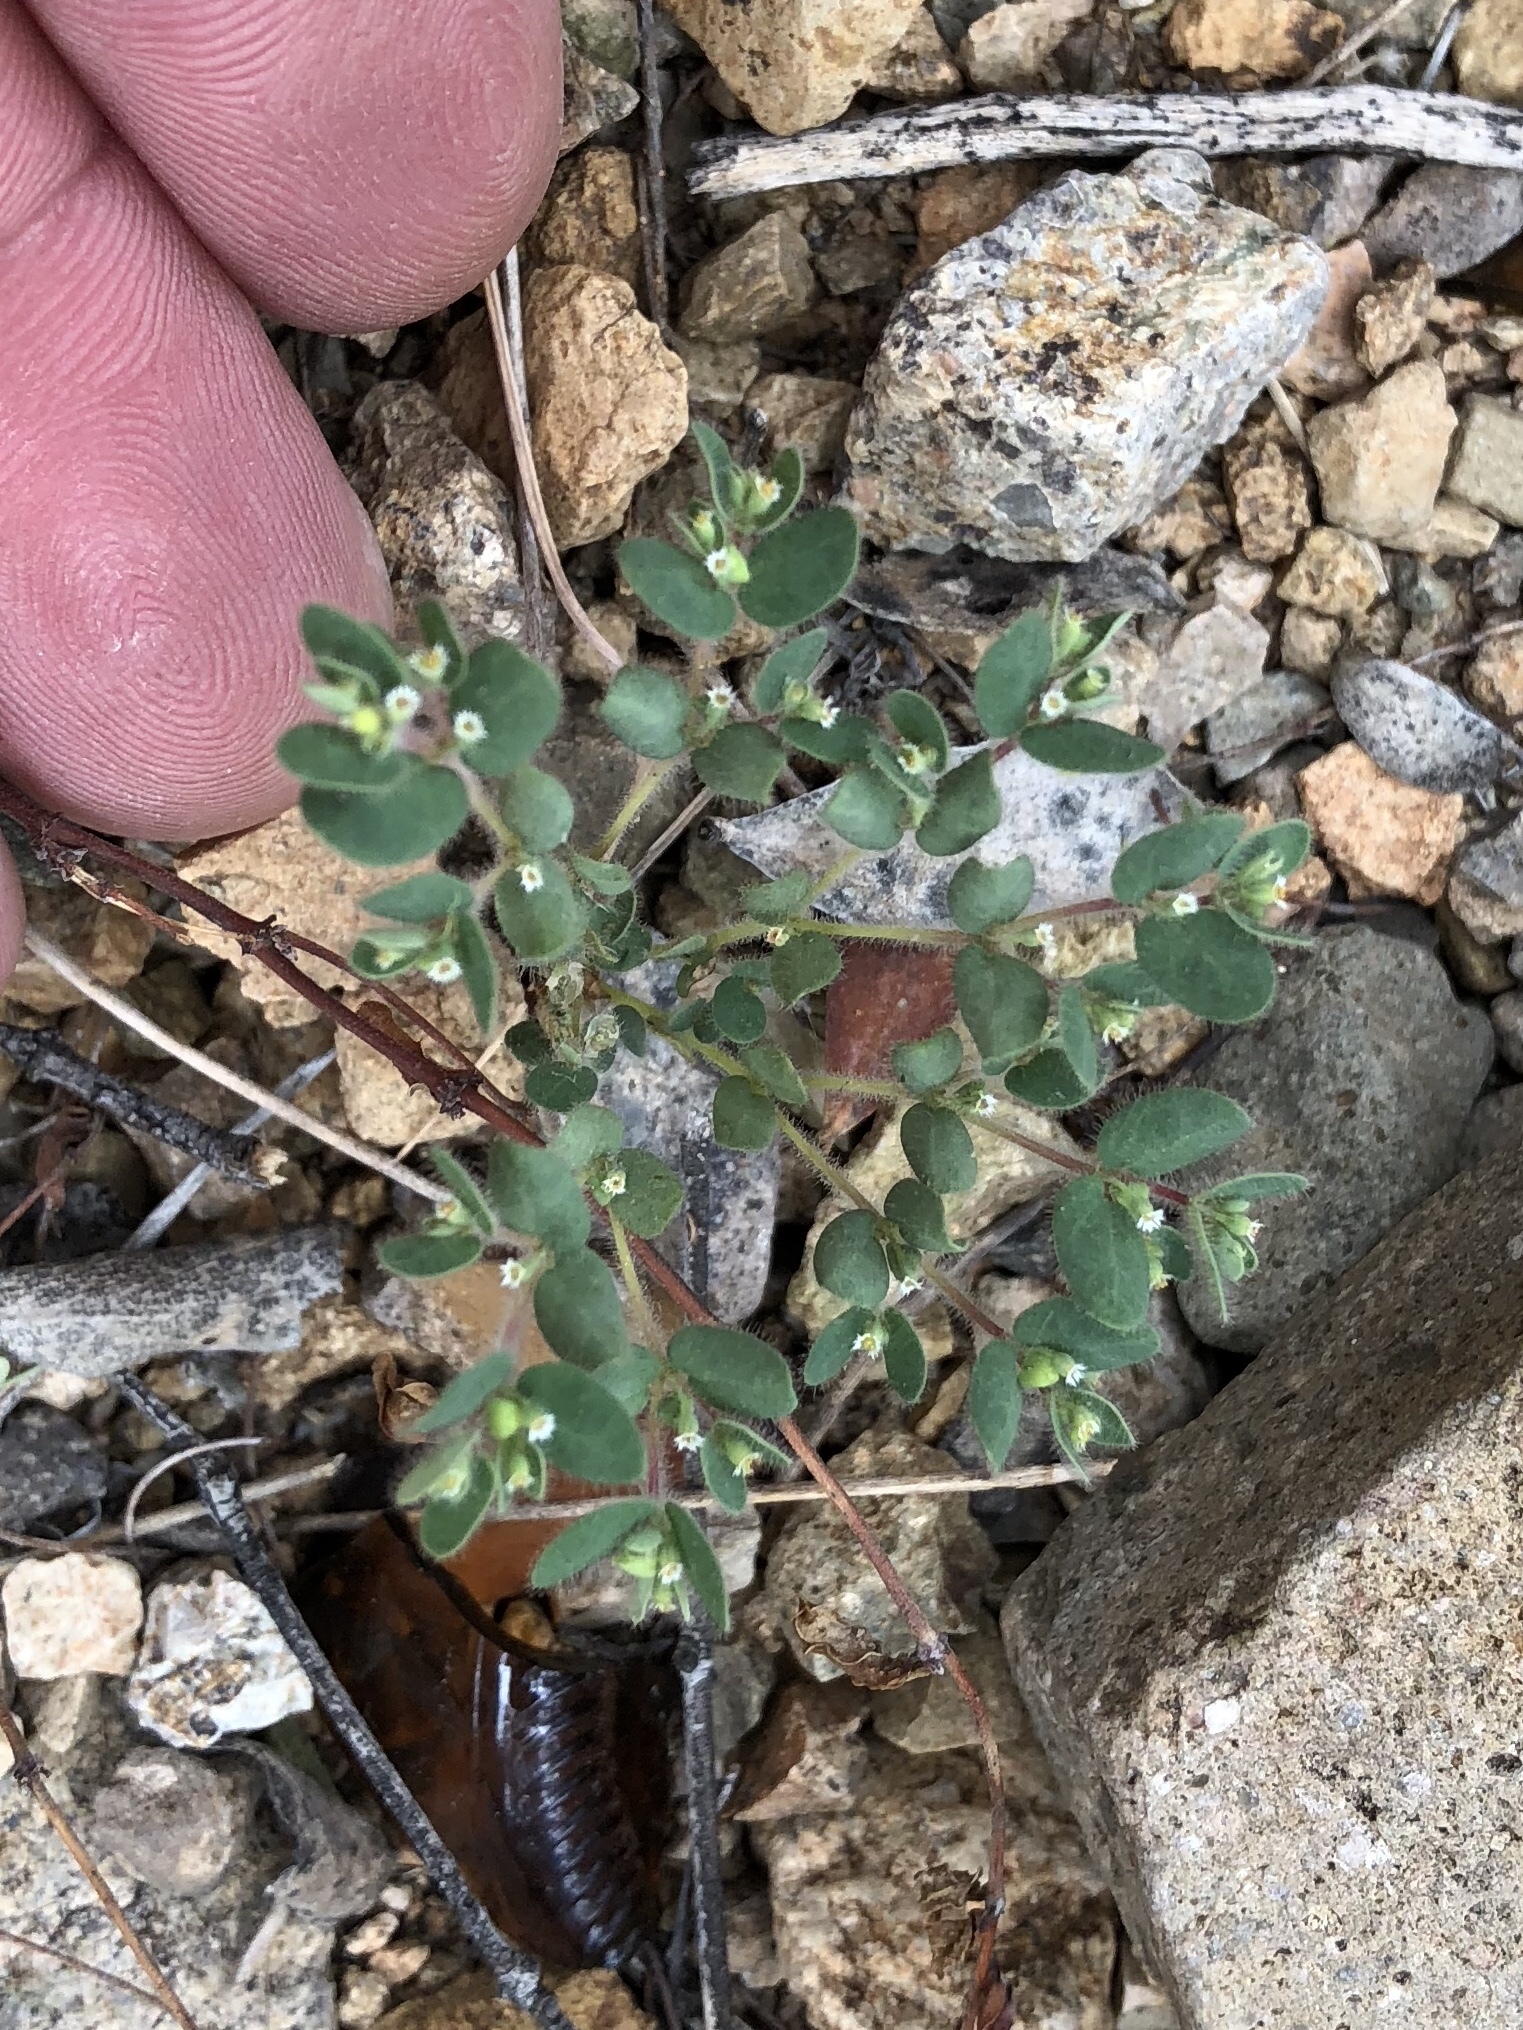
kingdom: Plantae
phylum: Tracheophyta
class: Magnoliopsida
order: Malpighiales
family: Euphorbiaceae
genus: Euphorbia
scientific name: Euphorbia setiloba
